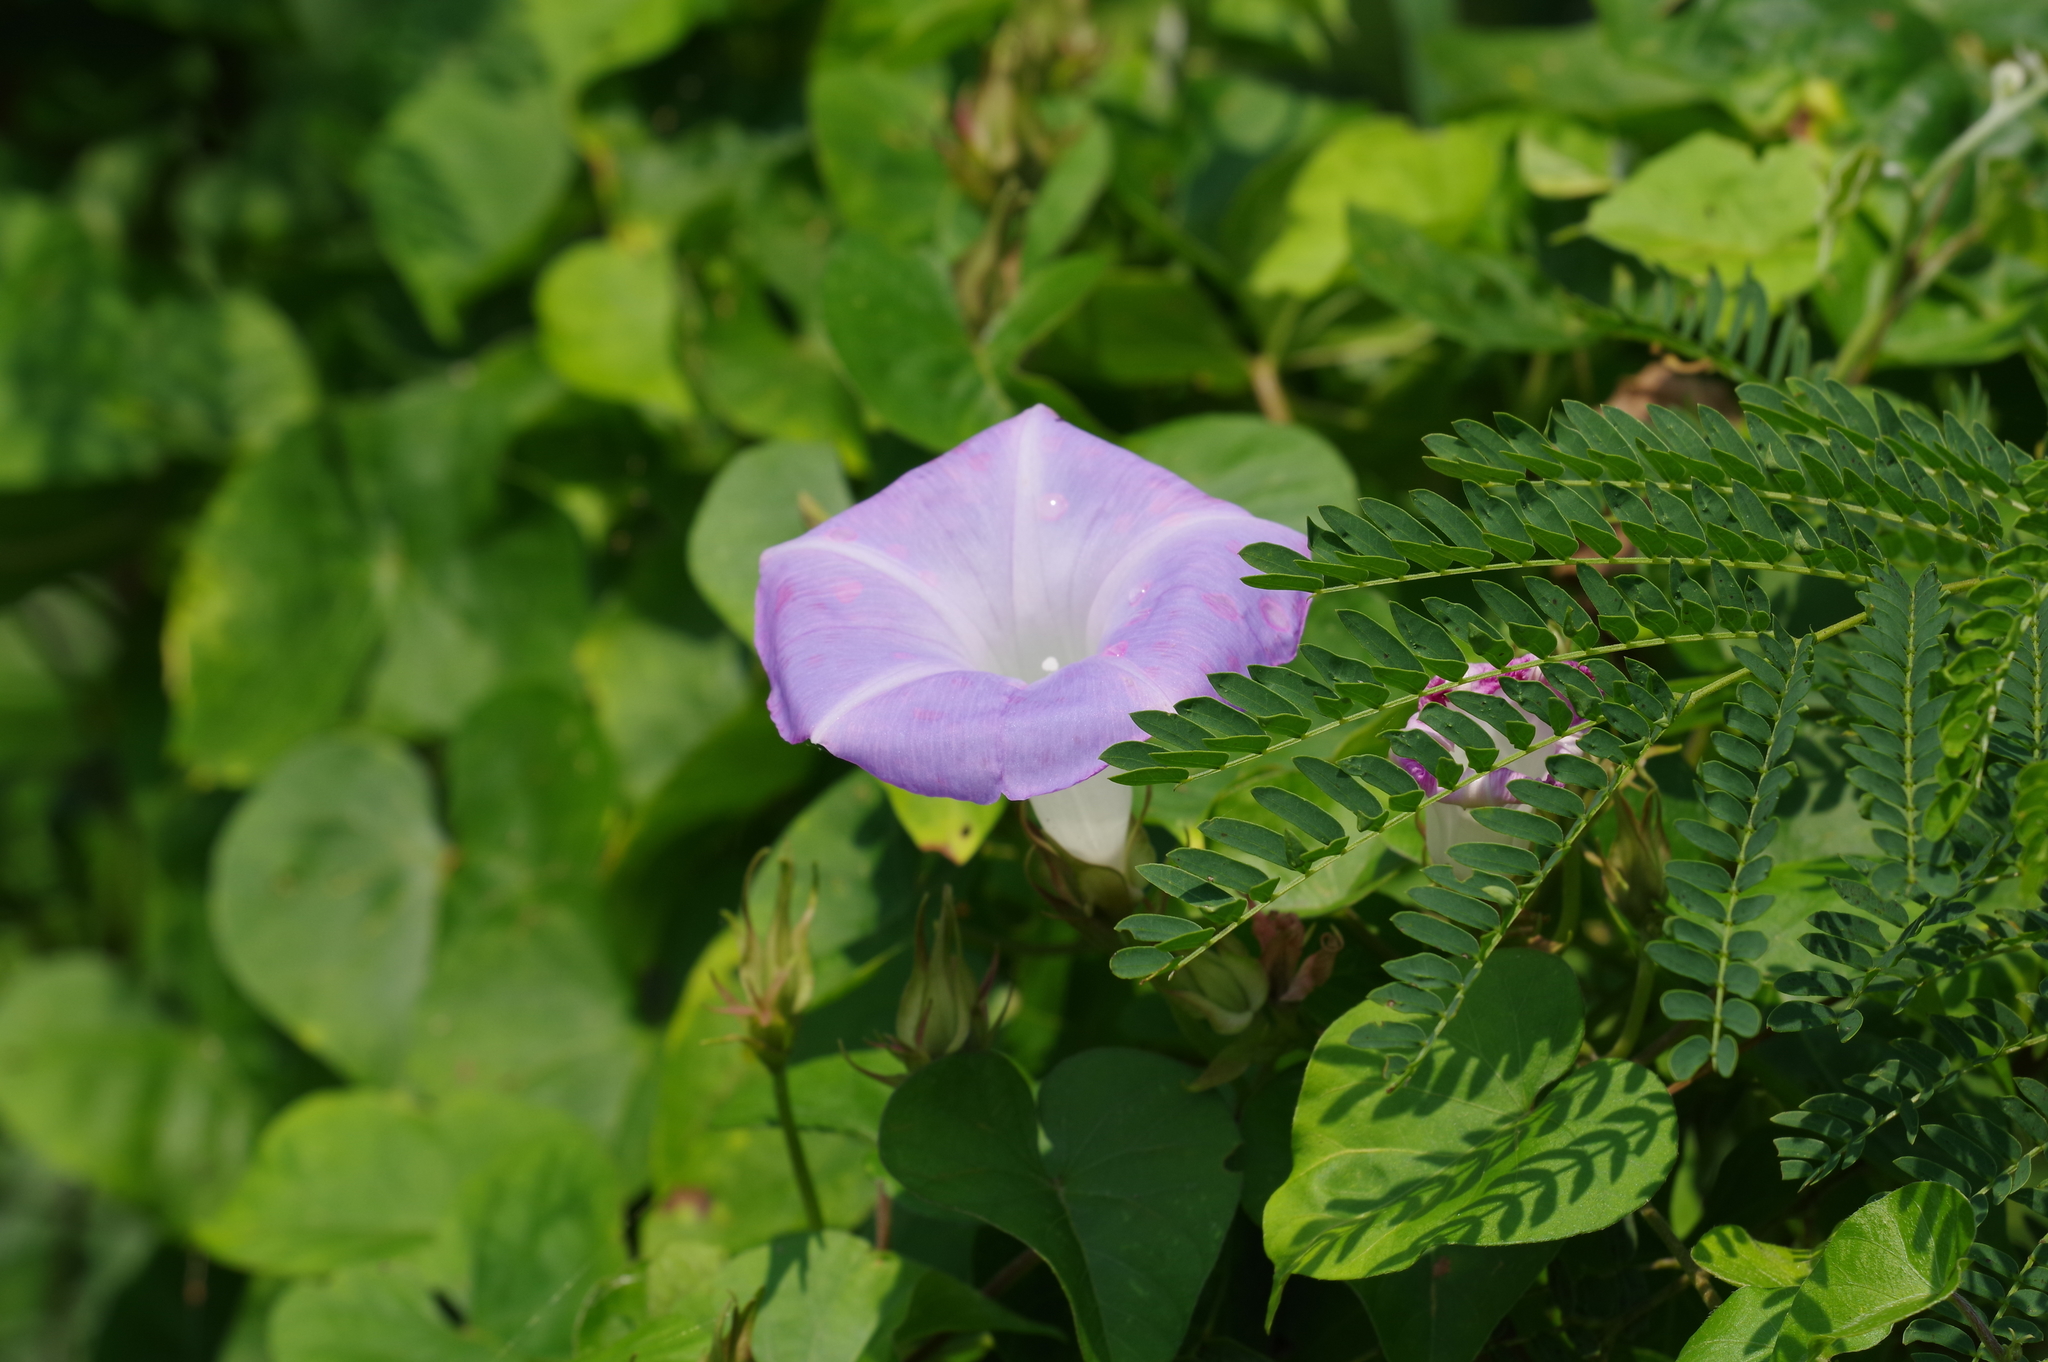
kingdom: Plantae
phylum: Tracheophyta
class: Magnoliopsida
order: Solanales
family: Convolvulaceae
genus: Ipomoea
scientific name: Ipomoea indica
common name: Blue dawnflower
